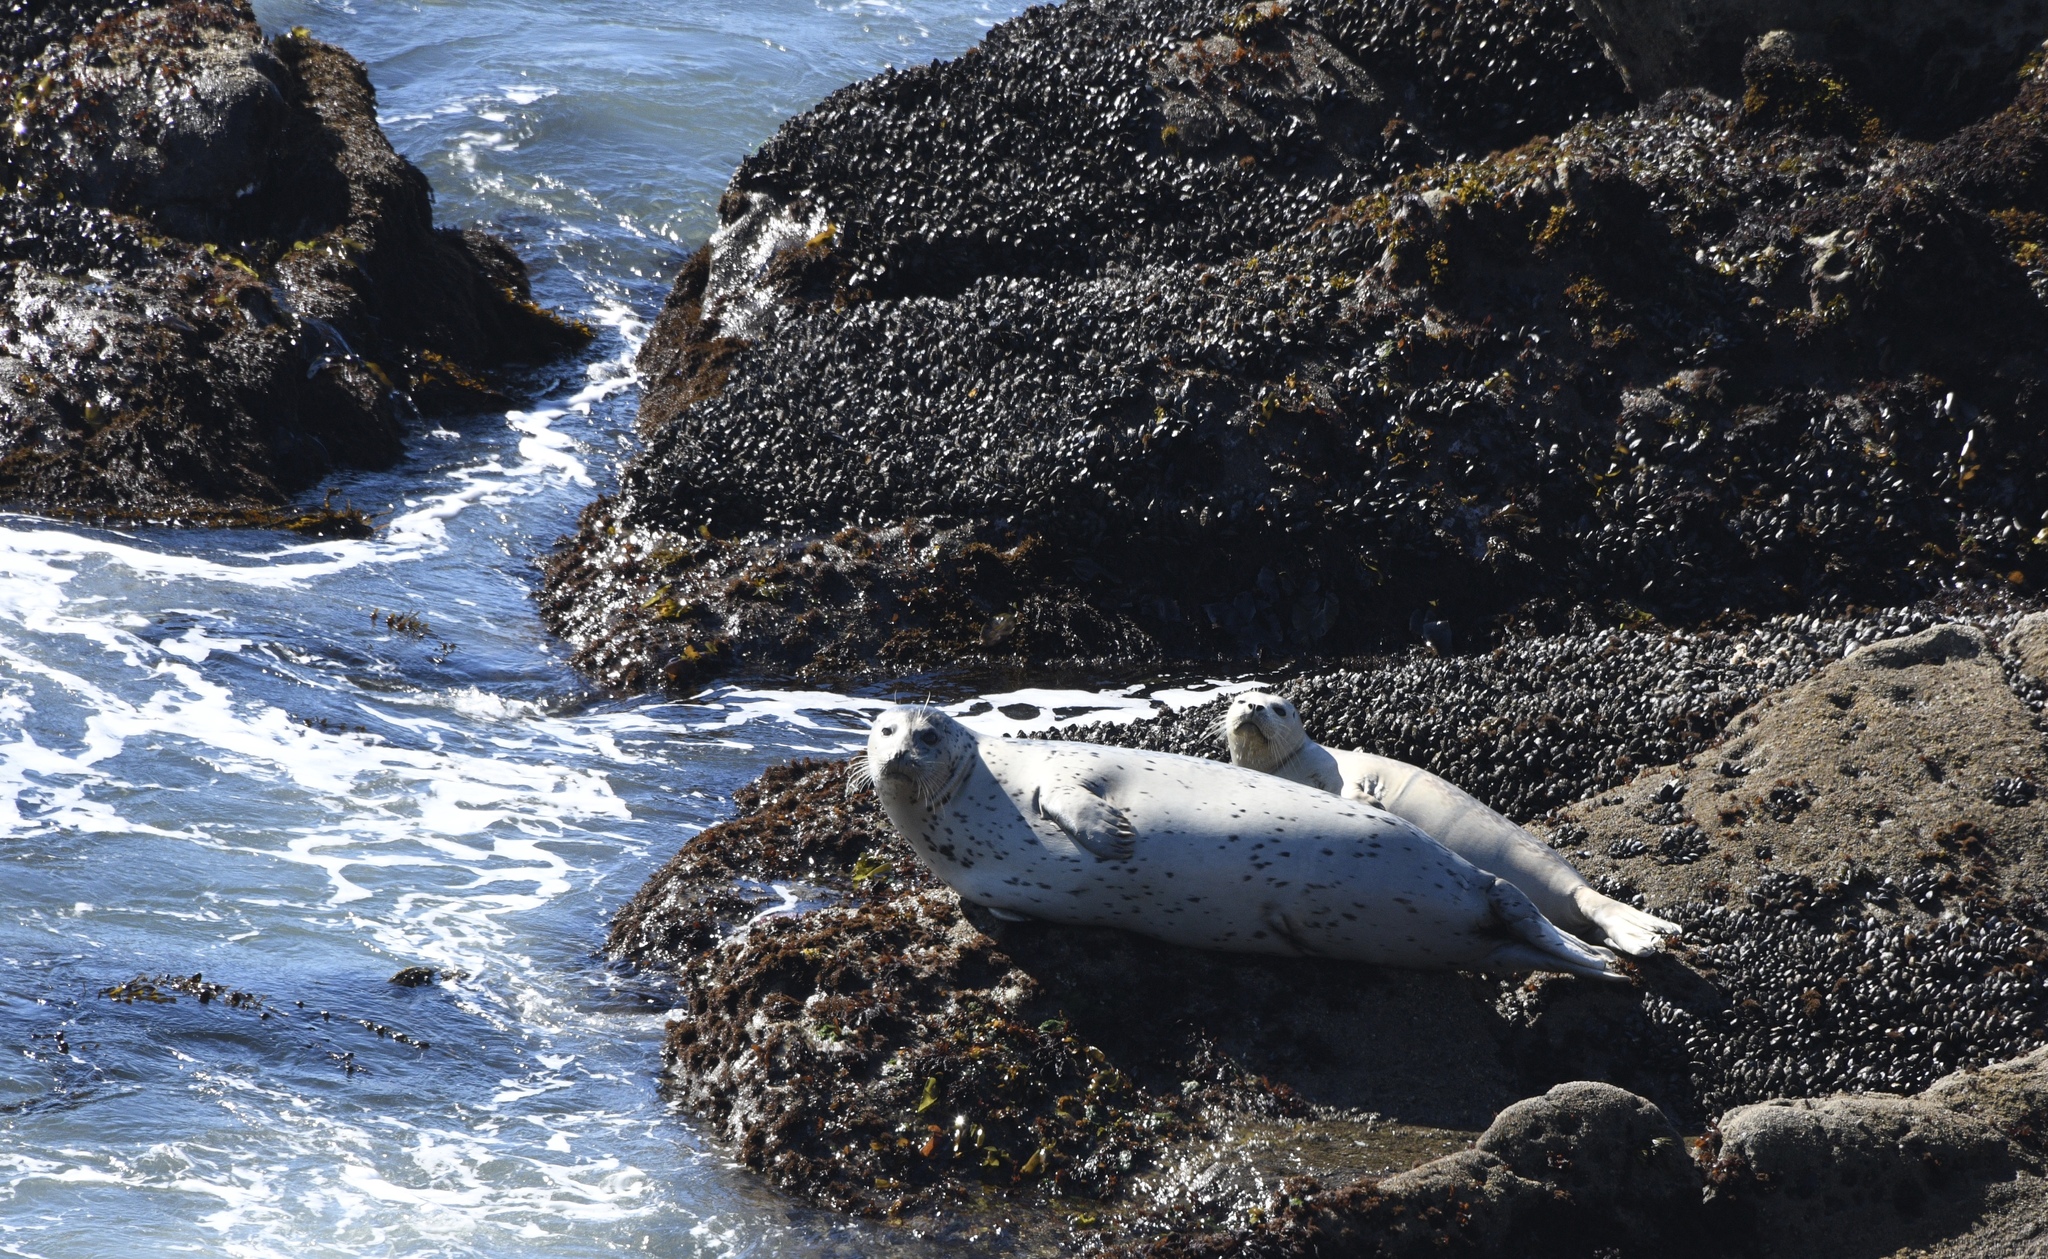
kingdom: Animalia
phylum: Chordata
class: Mammalia
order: Carnivora
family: Phocidae
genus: Phoca
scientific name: Phoca vitulina
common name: Harbor seal
